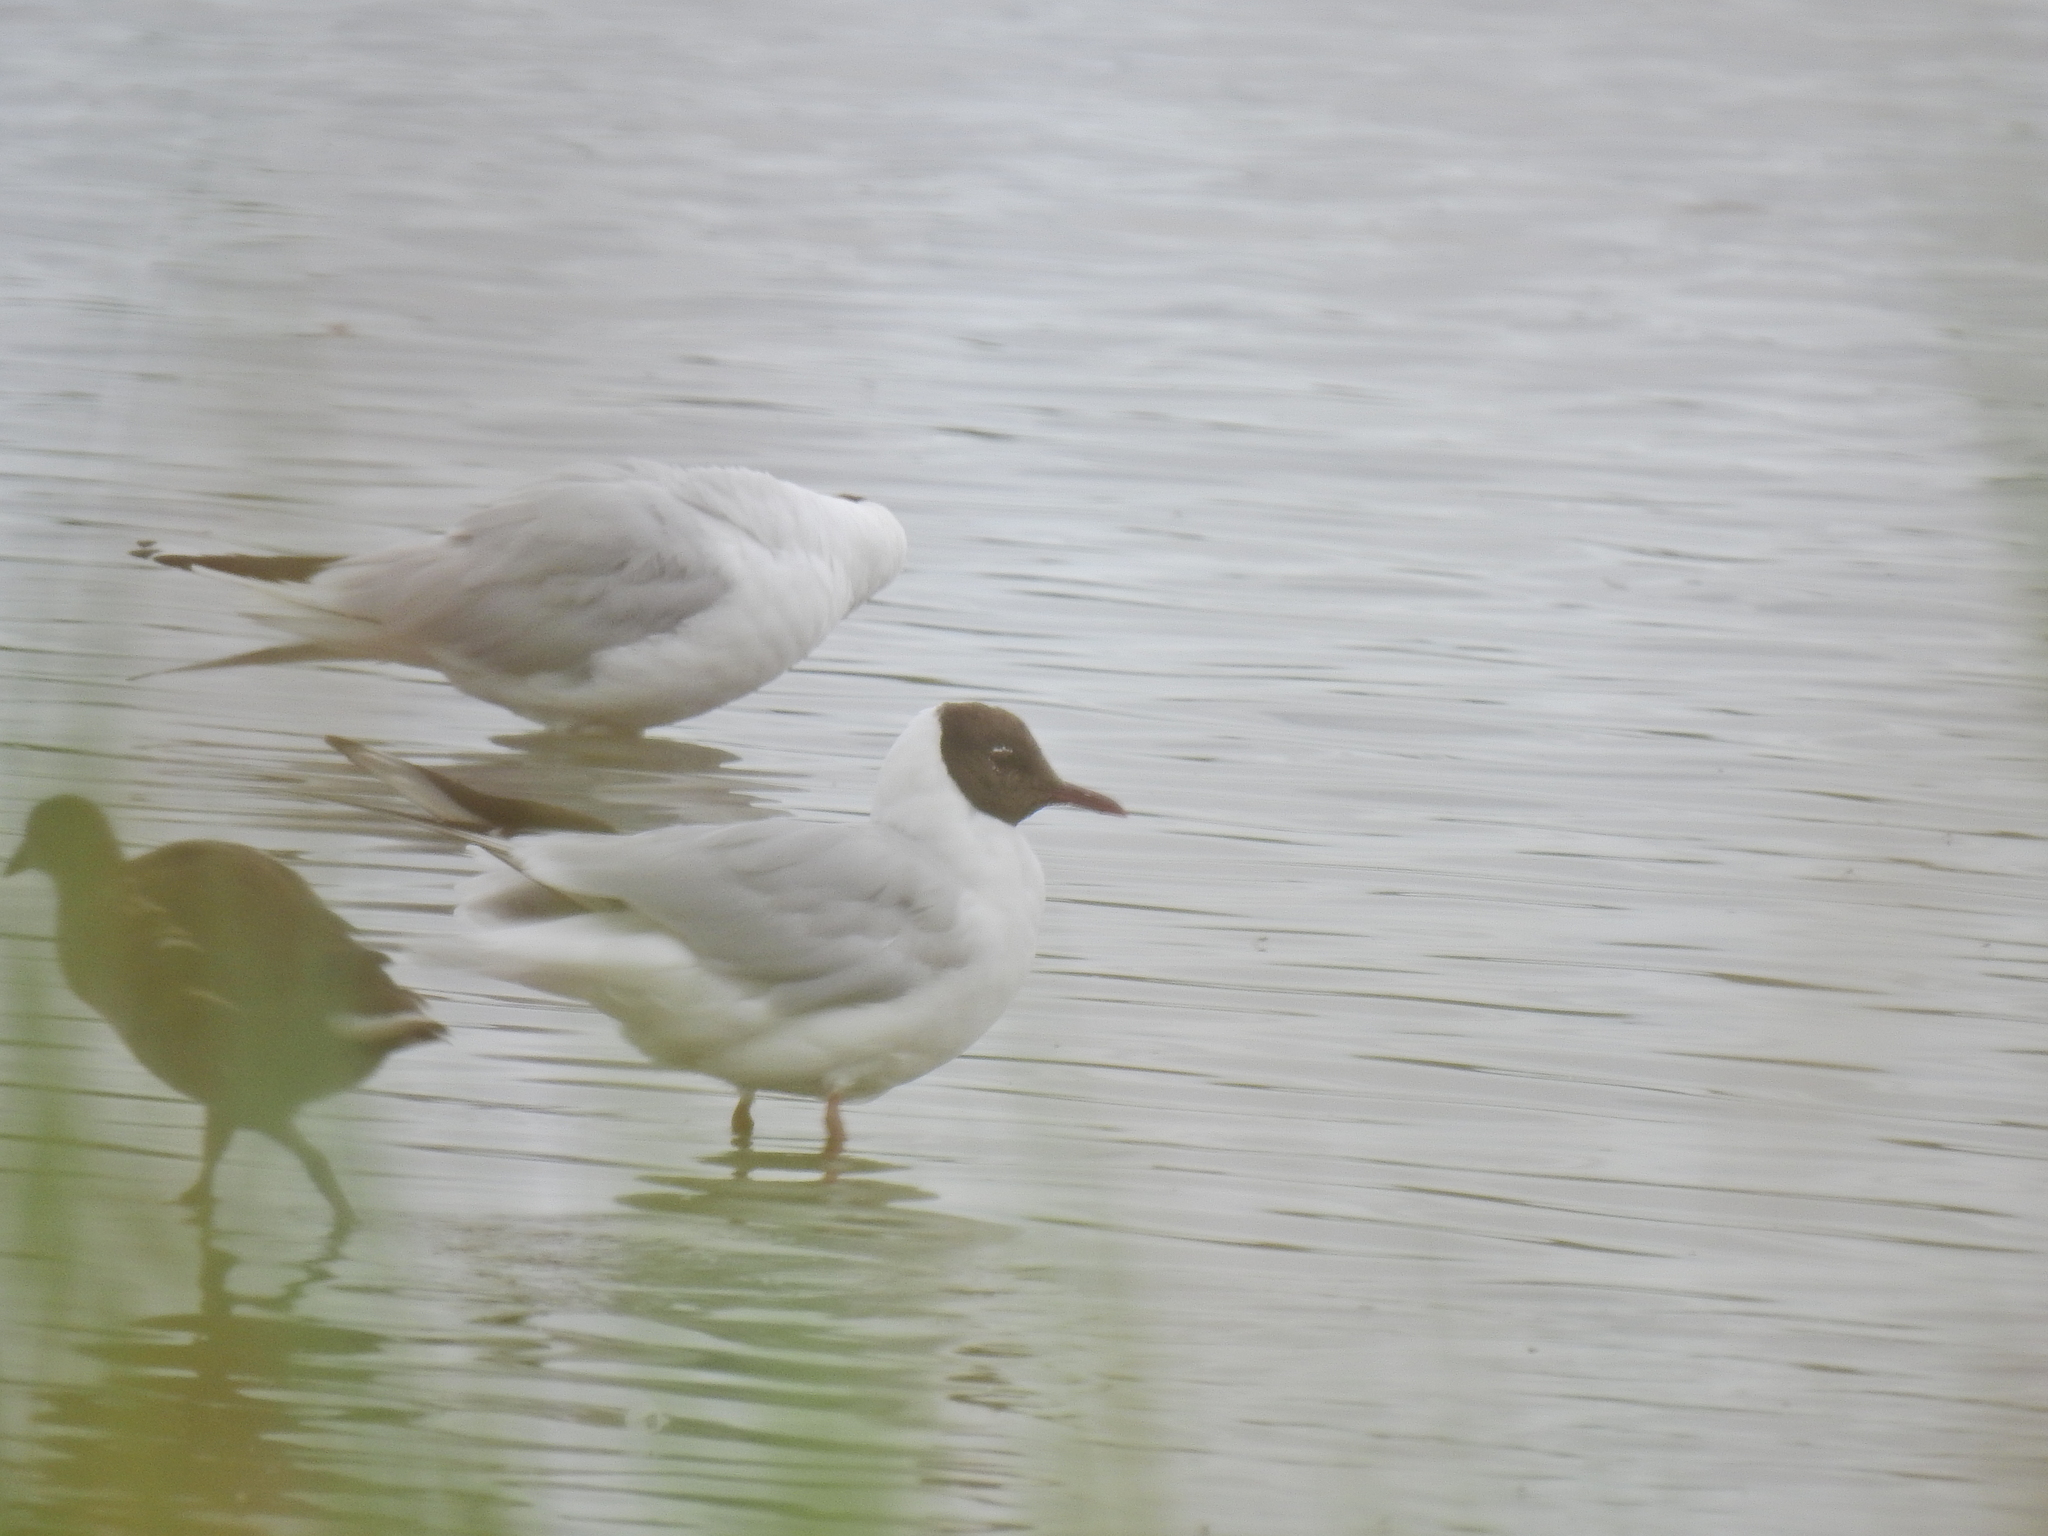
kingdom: Animalia
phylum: Chordata
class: Aves
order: Charadriiformes
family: Laridae
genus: Chroicocephalus
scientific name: Chroicocephalus ridibundus
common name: Black-headed gull
